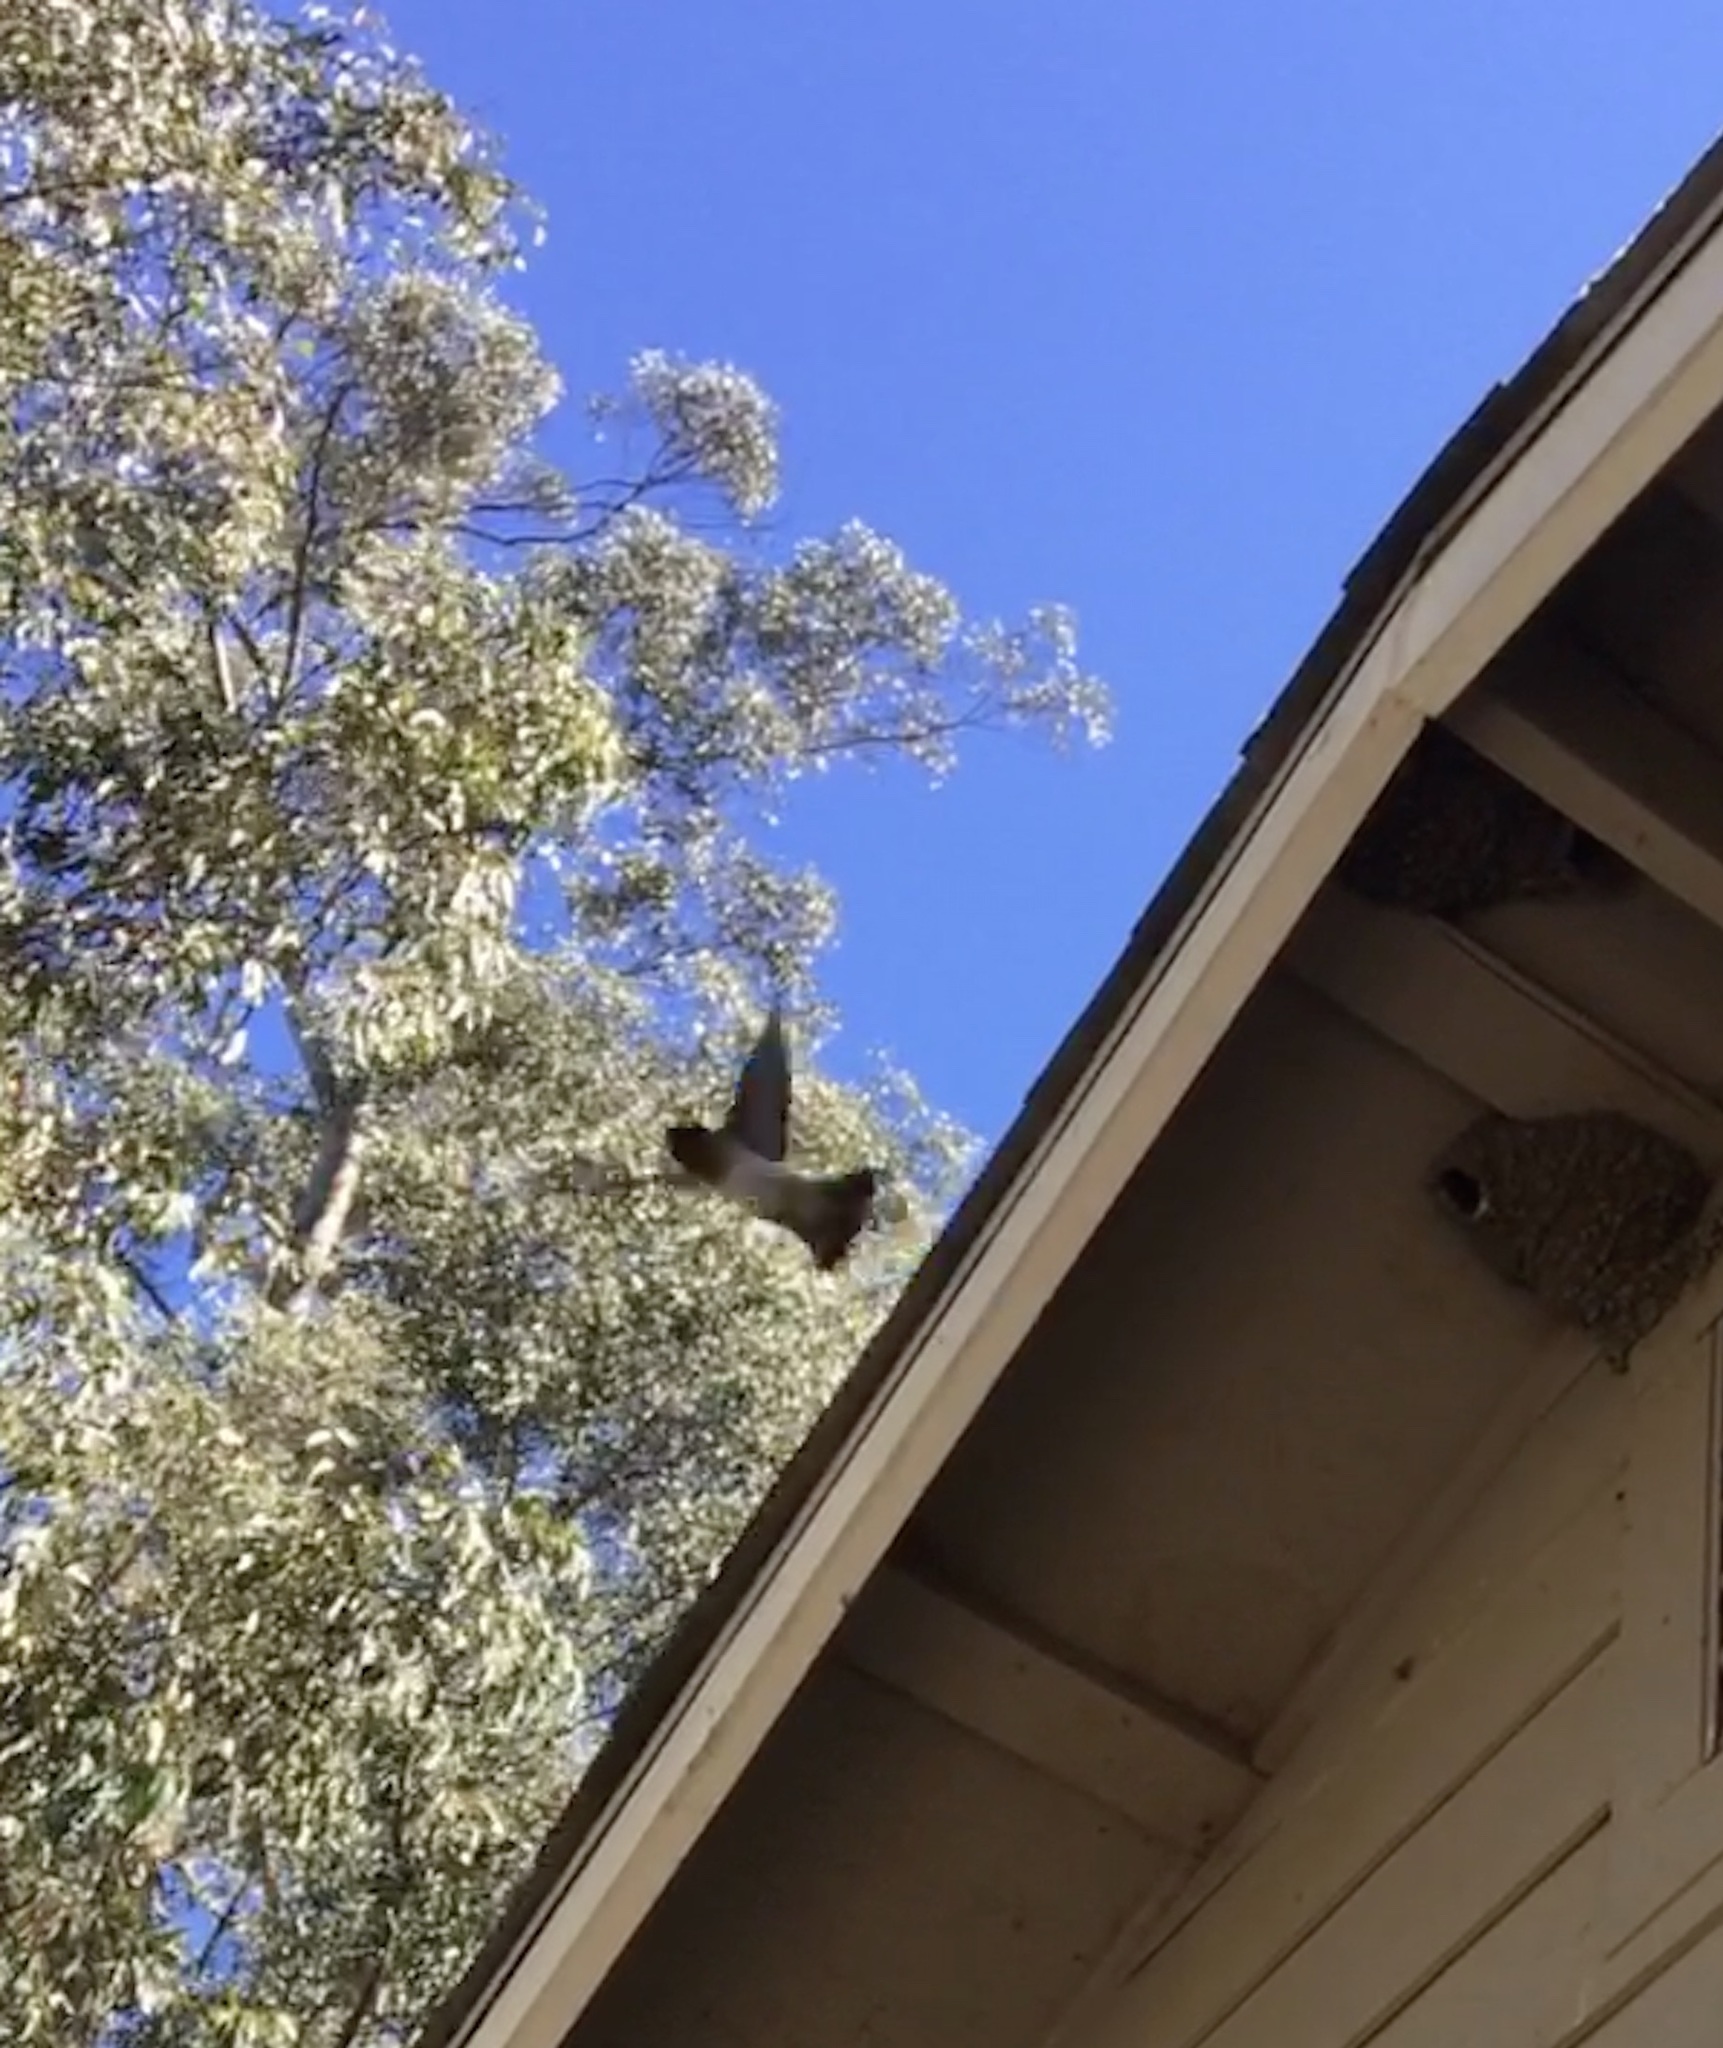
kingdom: Animalia
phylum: Chordata
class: Aves
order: Passeriformes
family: Hirundinidae
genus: Petrochelidon
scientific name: Petrochelidon pyrrhonota
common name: American cliff swallow
